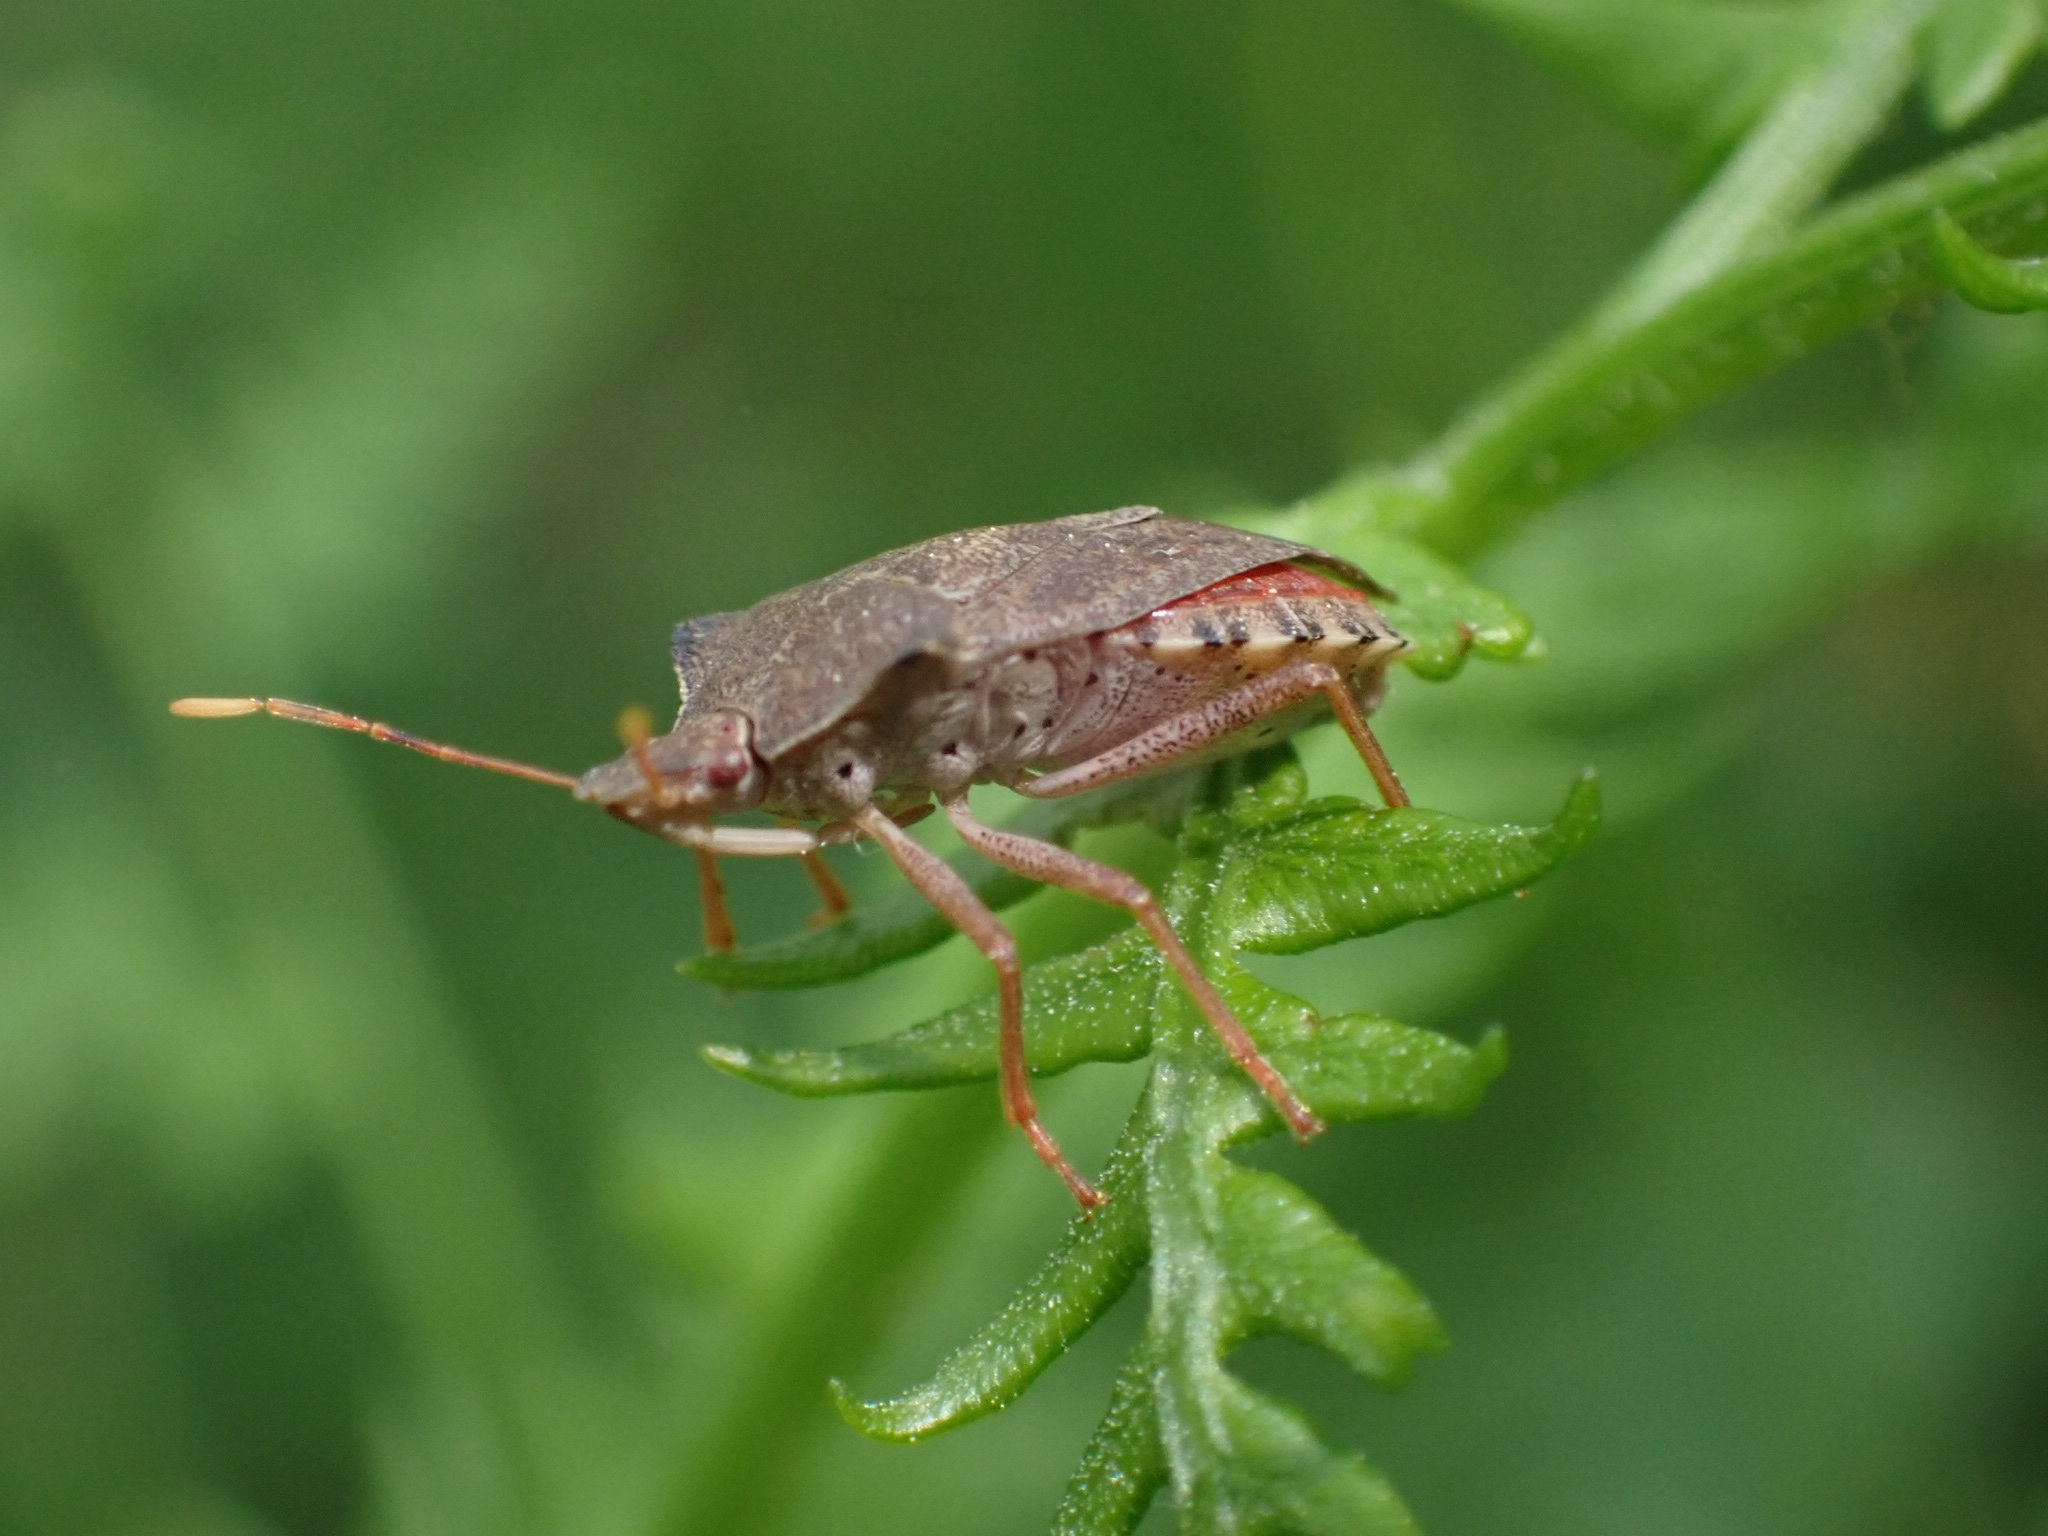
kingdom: Animalia
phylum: Arthropoda
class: Insecta
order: Hemiptera
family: Pentatomidae
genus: Arma
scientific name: Arma custos
